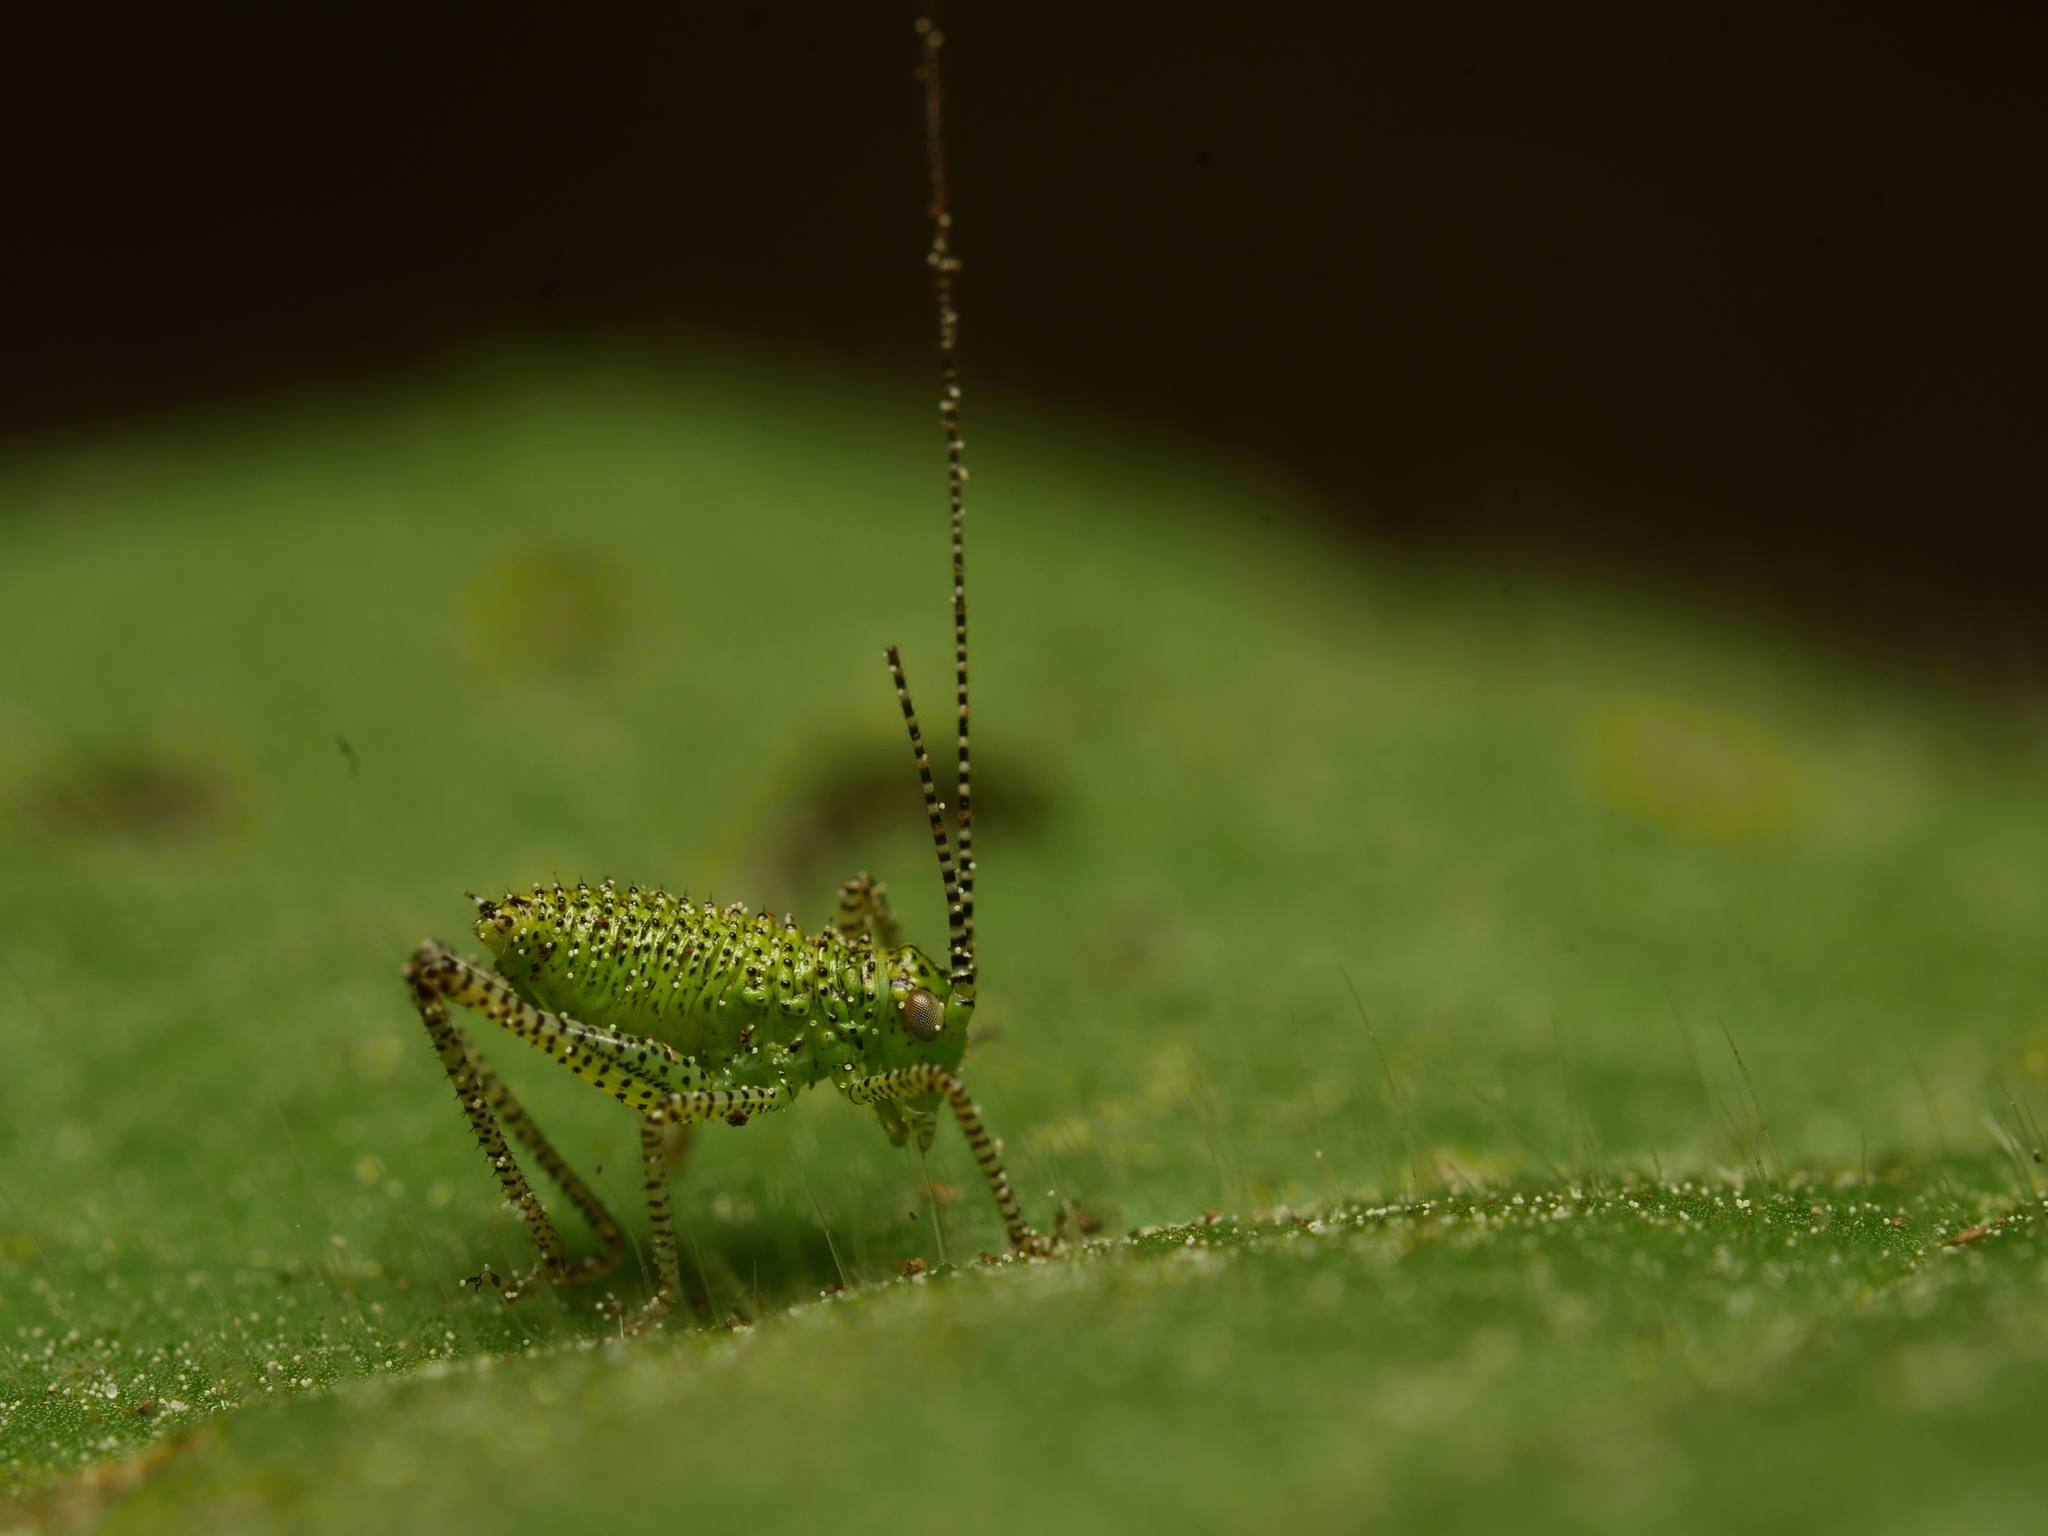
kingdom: Animalia
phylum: Arthropoda
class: Insecta
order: Orthoptera
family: Tettigoniidae
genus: Leptophyes
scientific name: Leptophyes punctatissima
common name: Speckled bush-cricket
